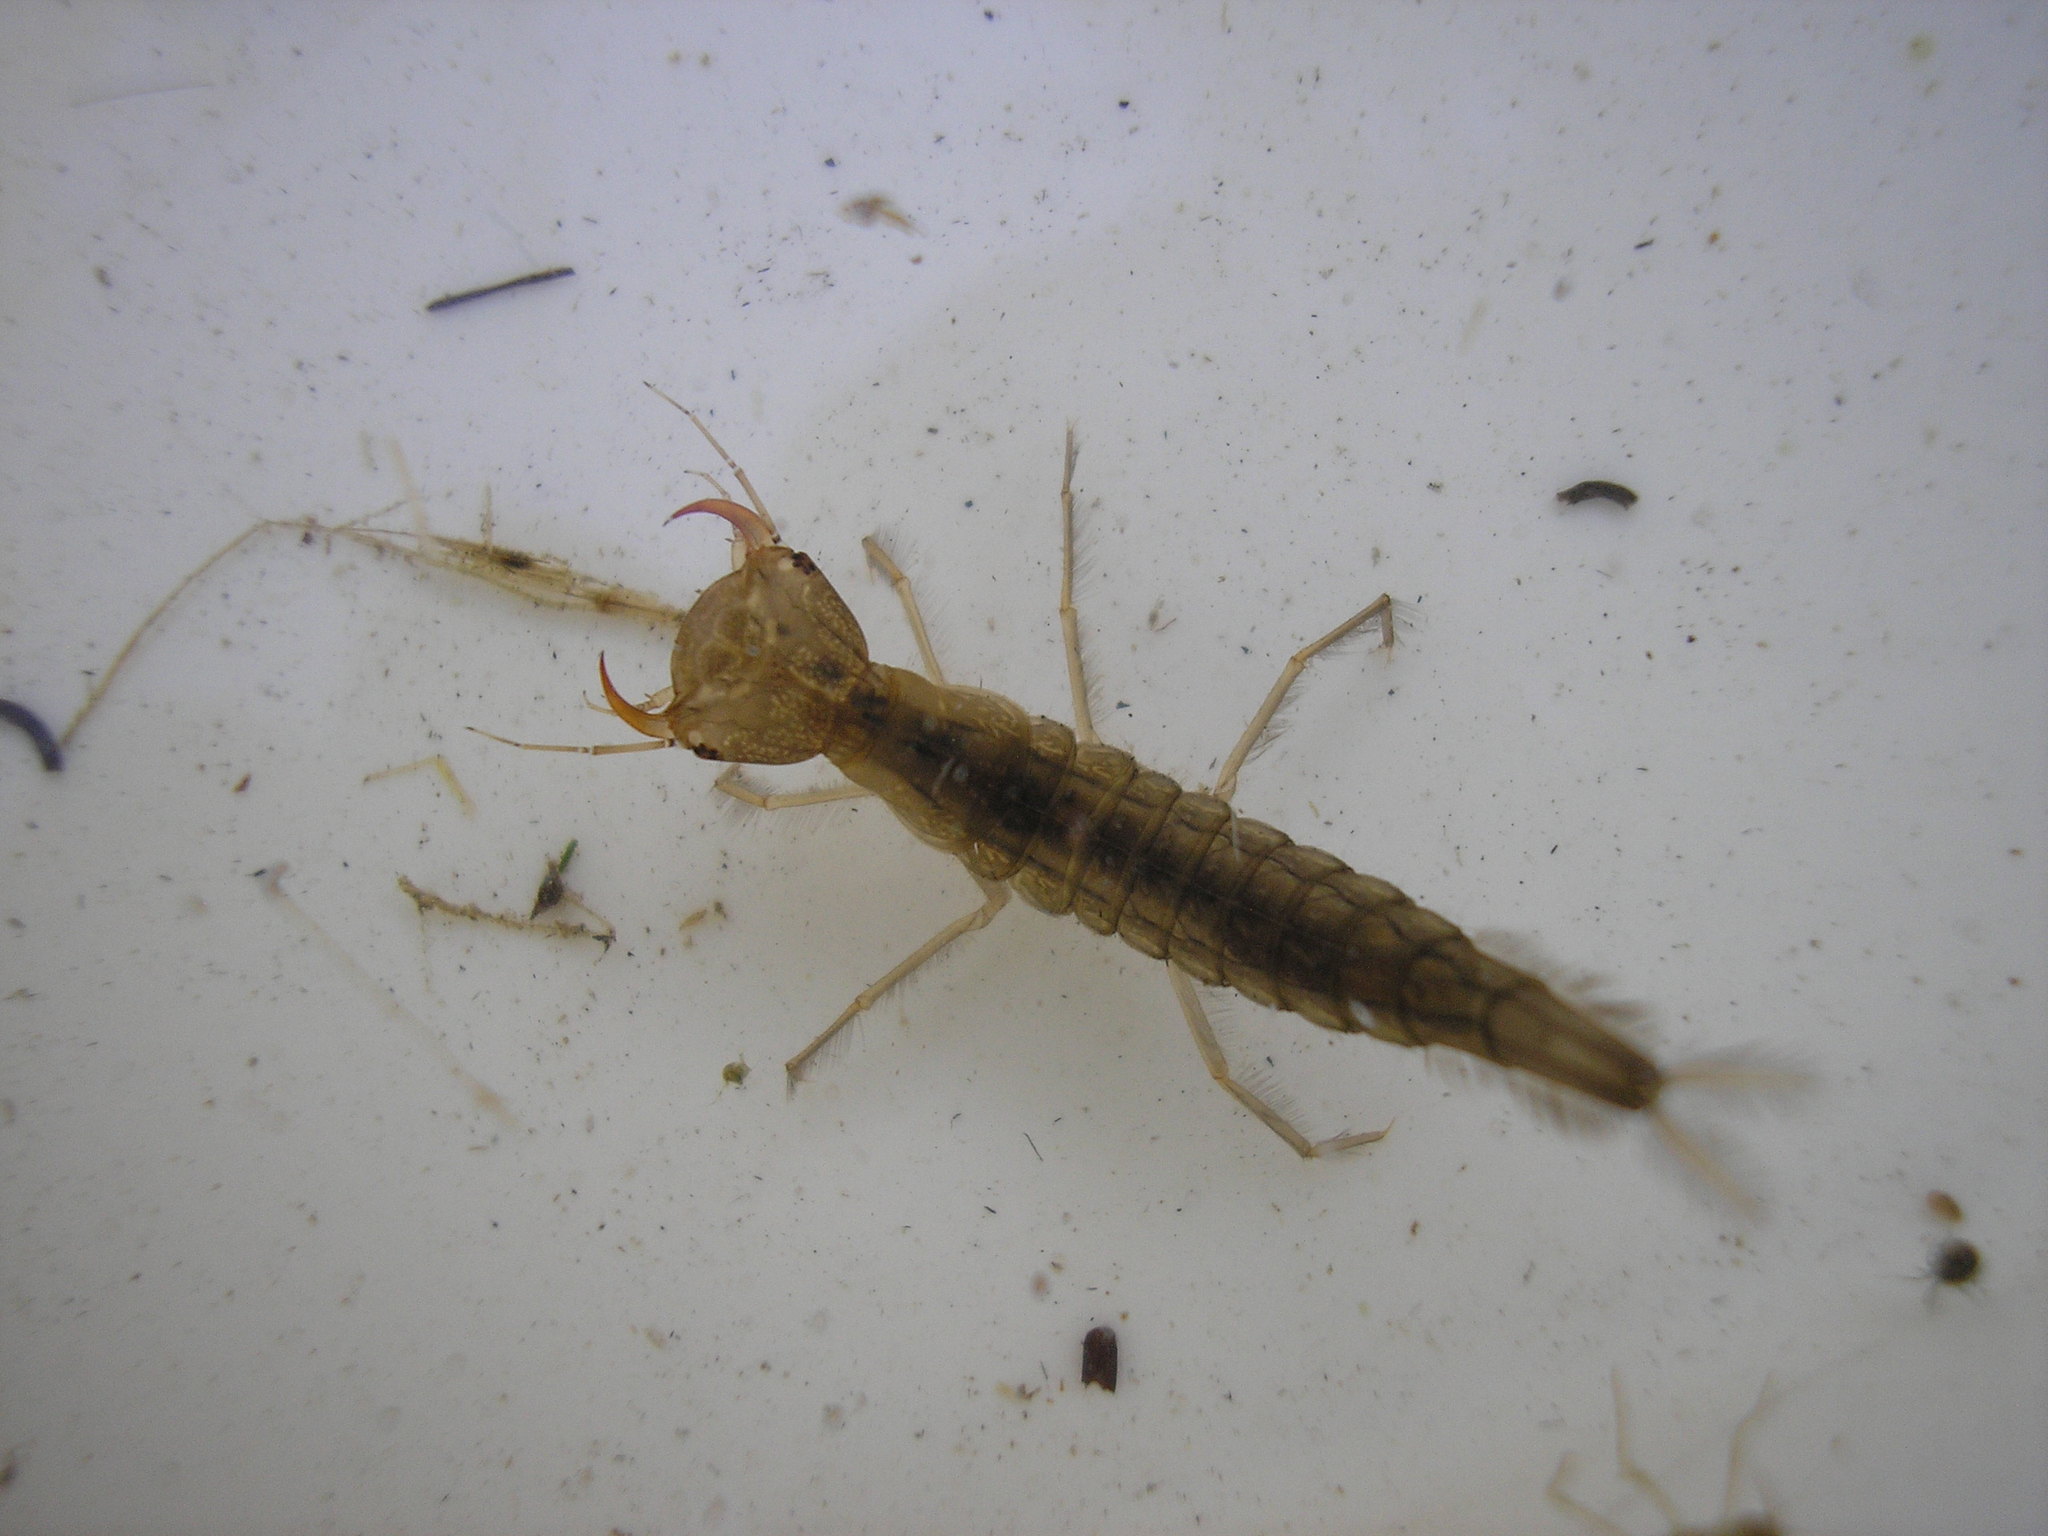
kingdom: Animalia
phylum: Arthropoda
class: Insecta
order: Coleoptera
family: Dytiscidae
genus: Dytiscus
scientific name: Dytiscus
